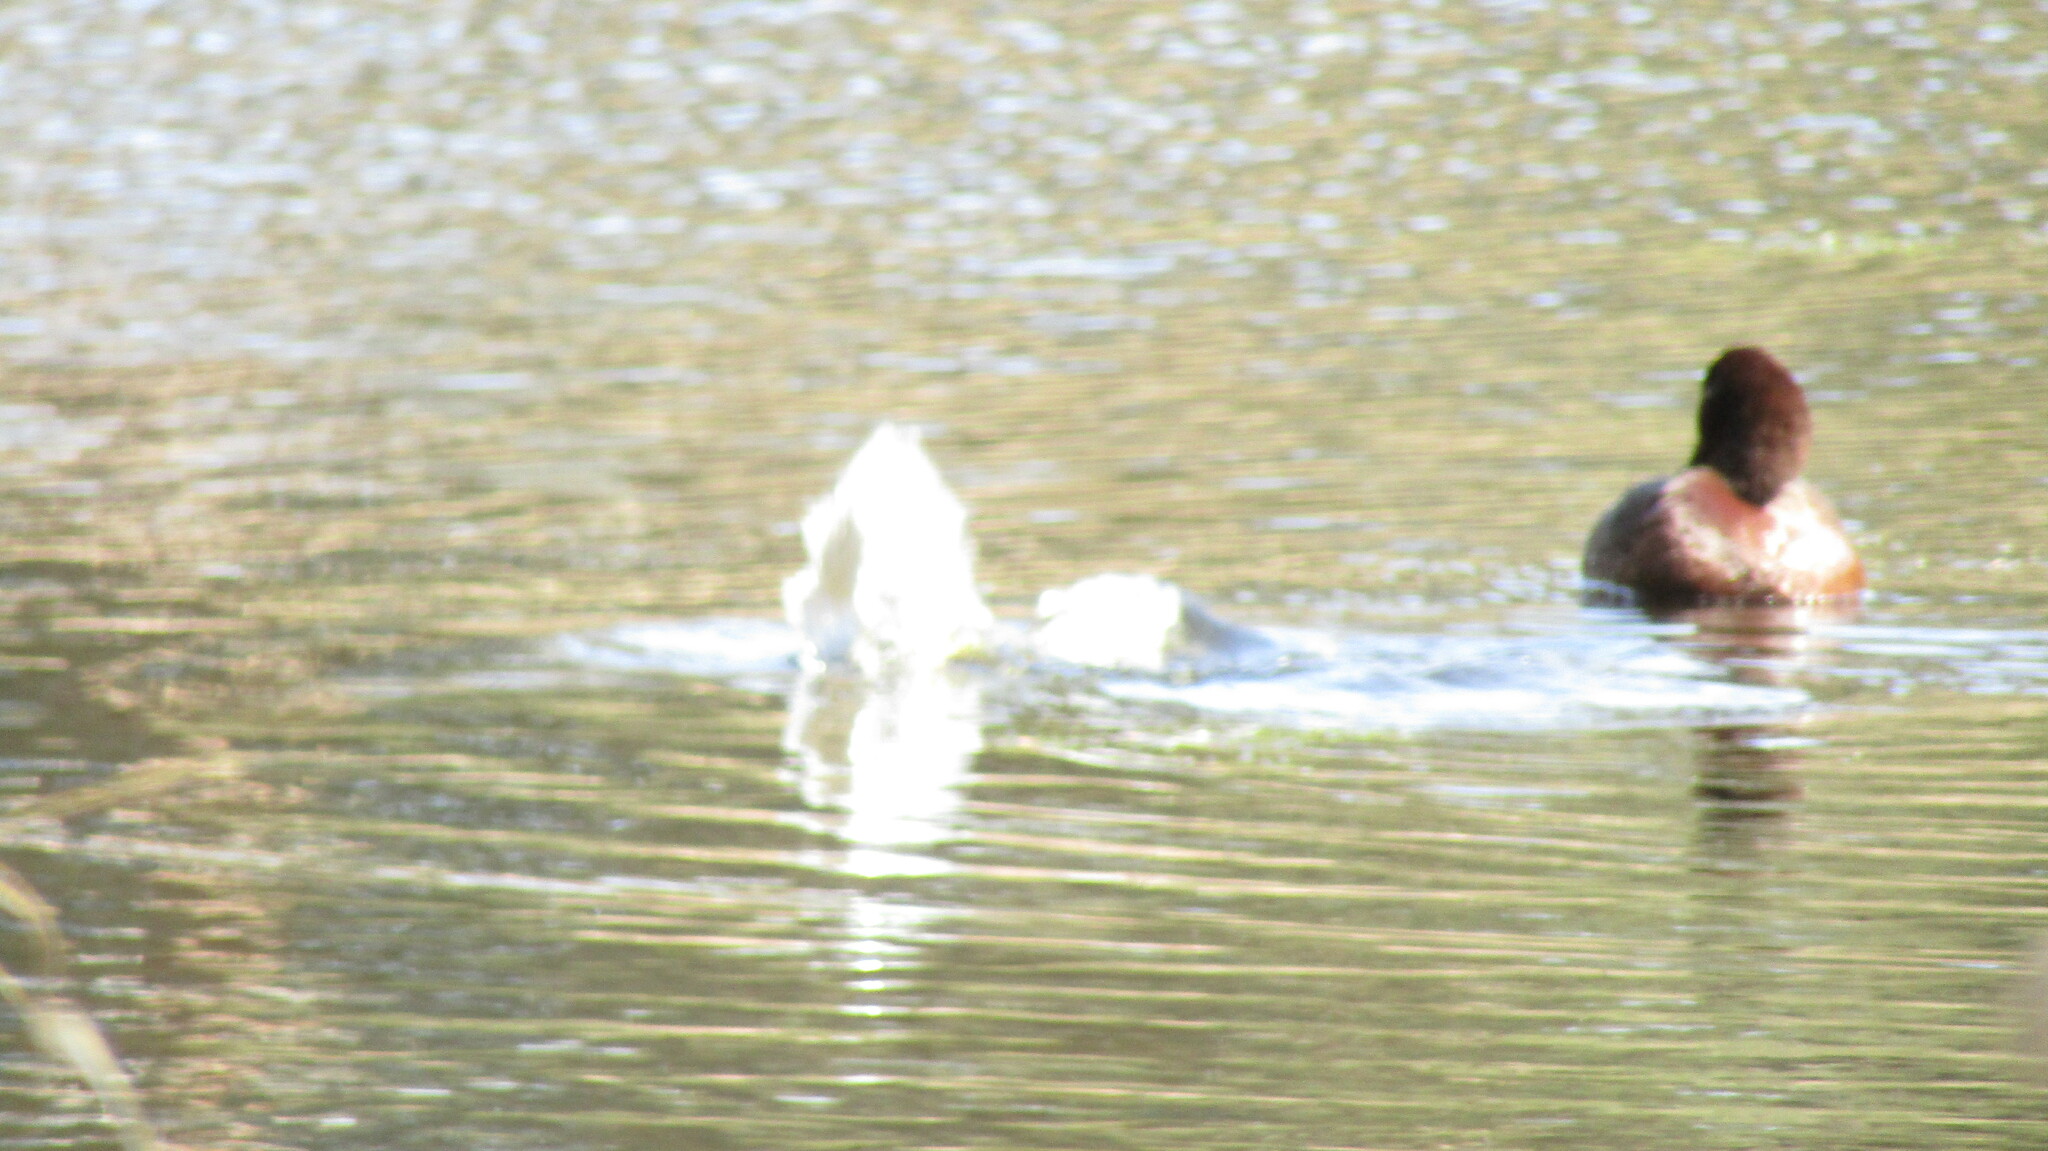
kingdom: Animalia
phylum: Chordata
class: Aves
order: Anseriformes
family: Anatidae
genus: Aythya
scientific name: Aythya australis
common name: Hardhead
